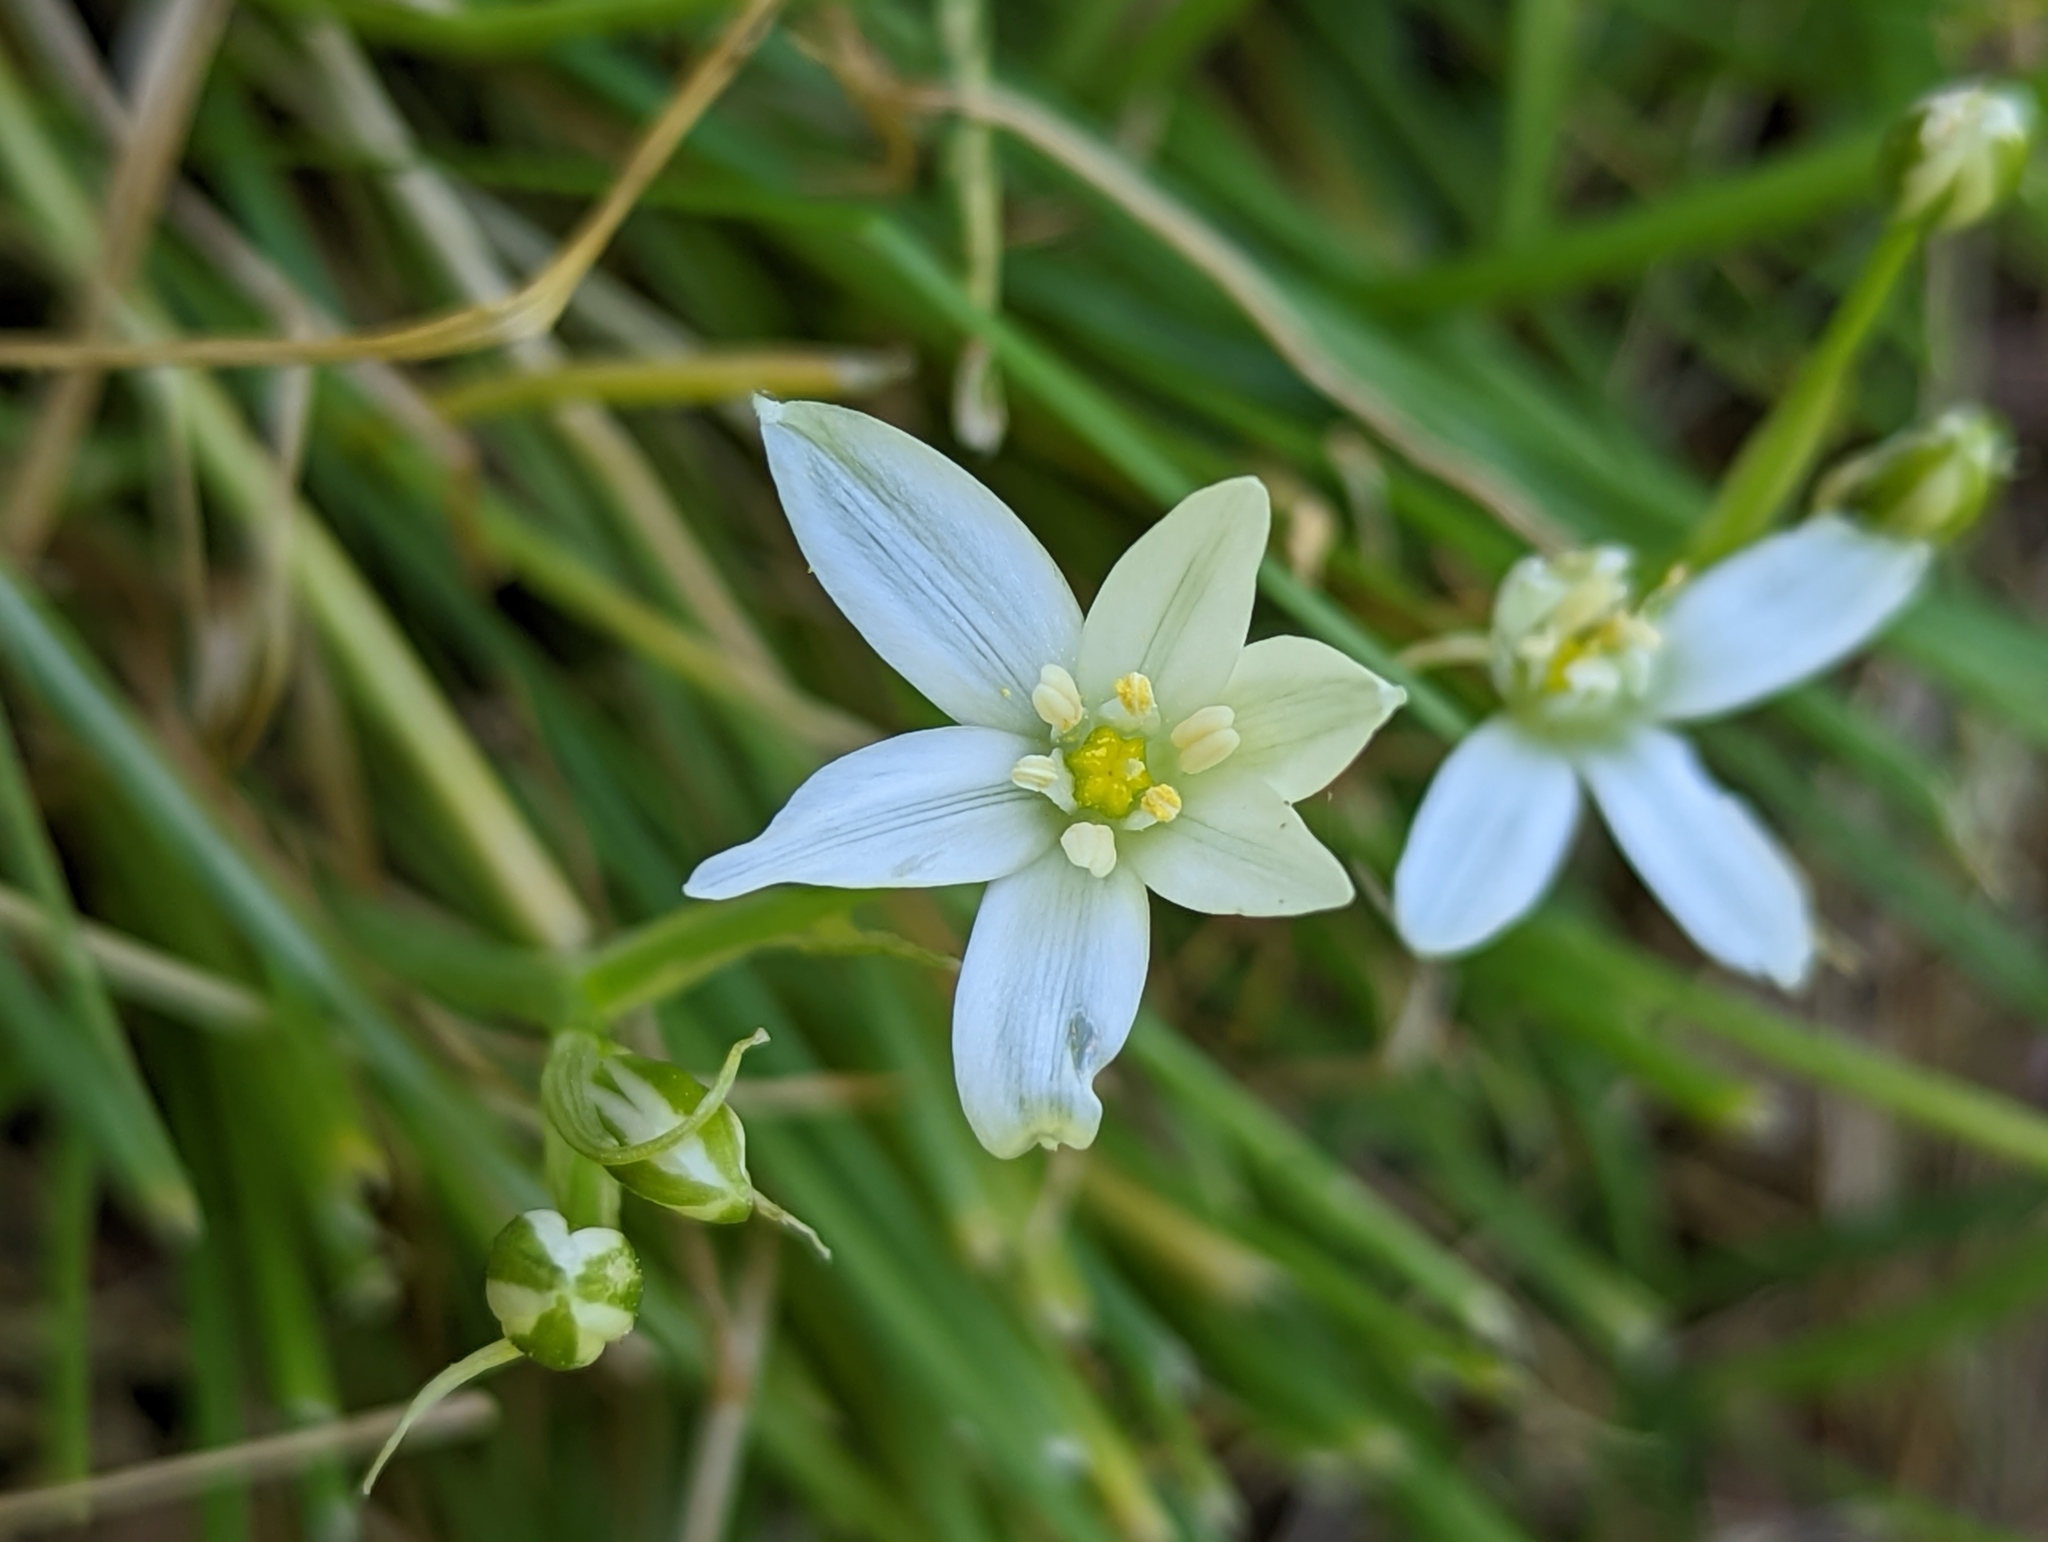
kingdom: Plantae
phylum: Tracheophyta
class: Liliopsida
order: Asparagales
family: Asparagaceae
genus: Ornithogalum
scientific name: Ornithogalum umbellatum
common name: Garden star-of-bethlehem
